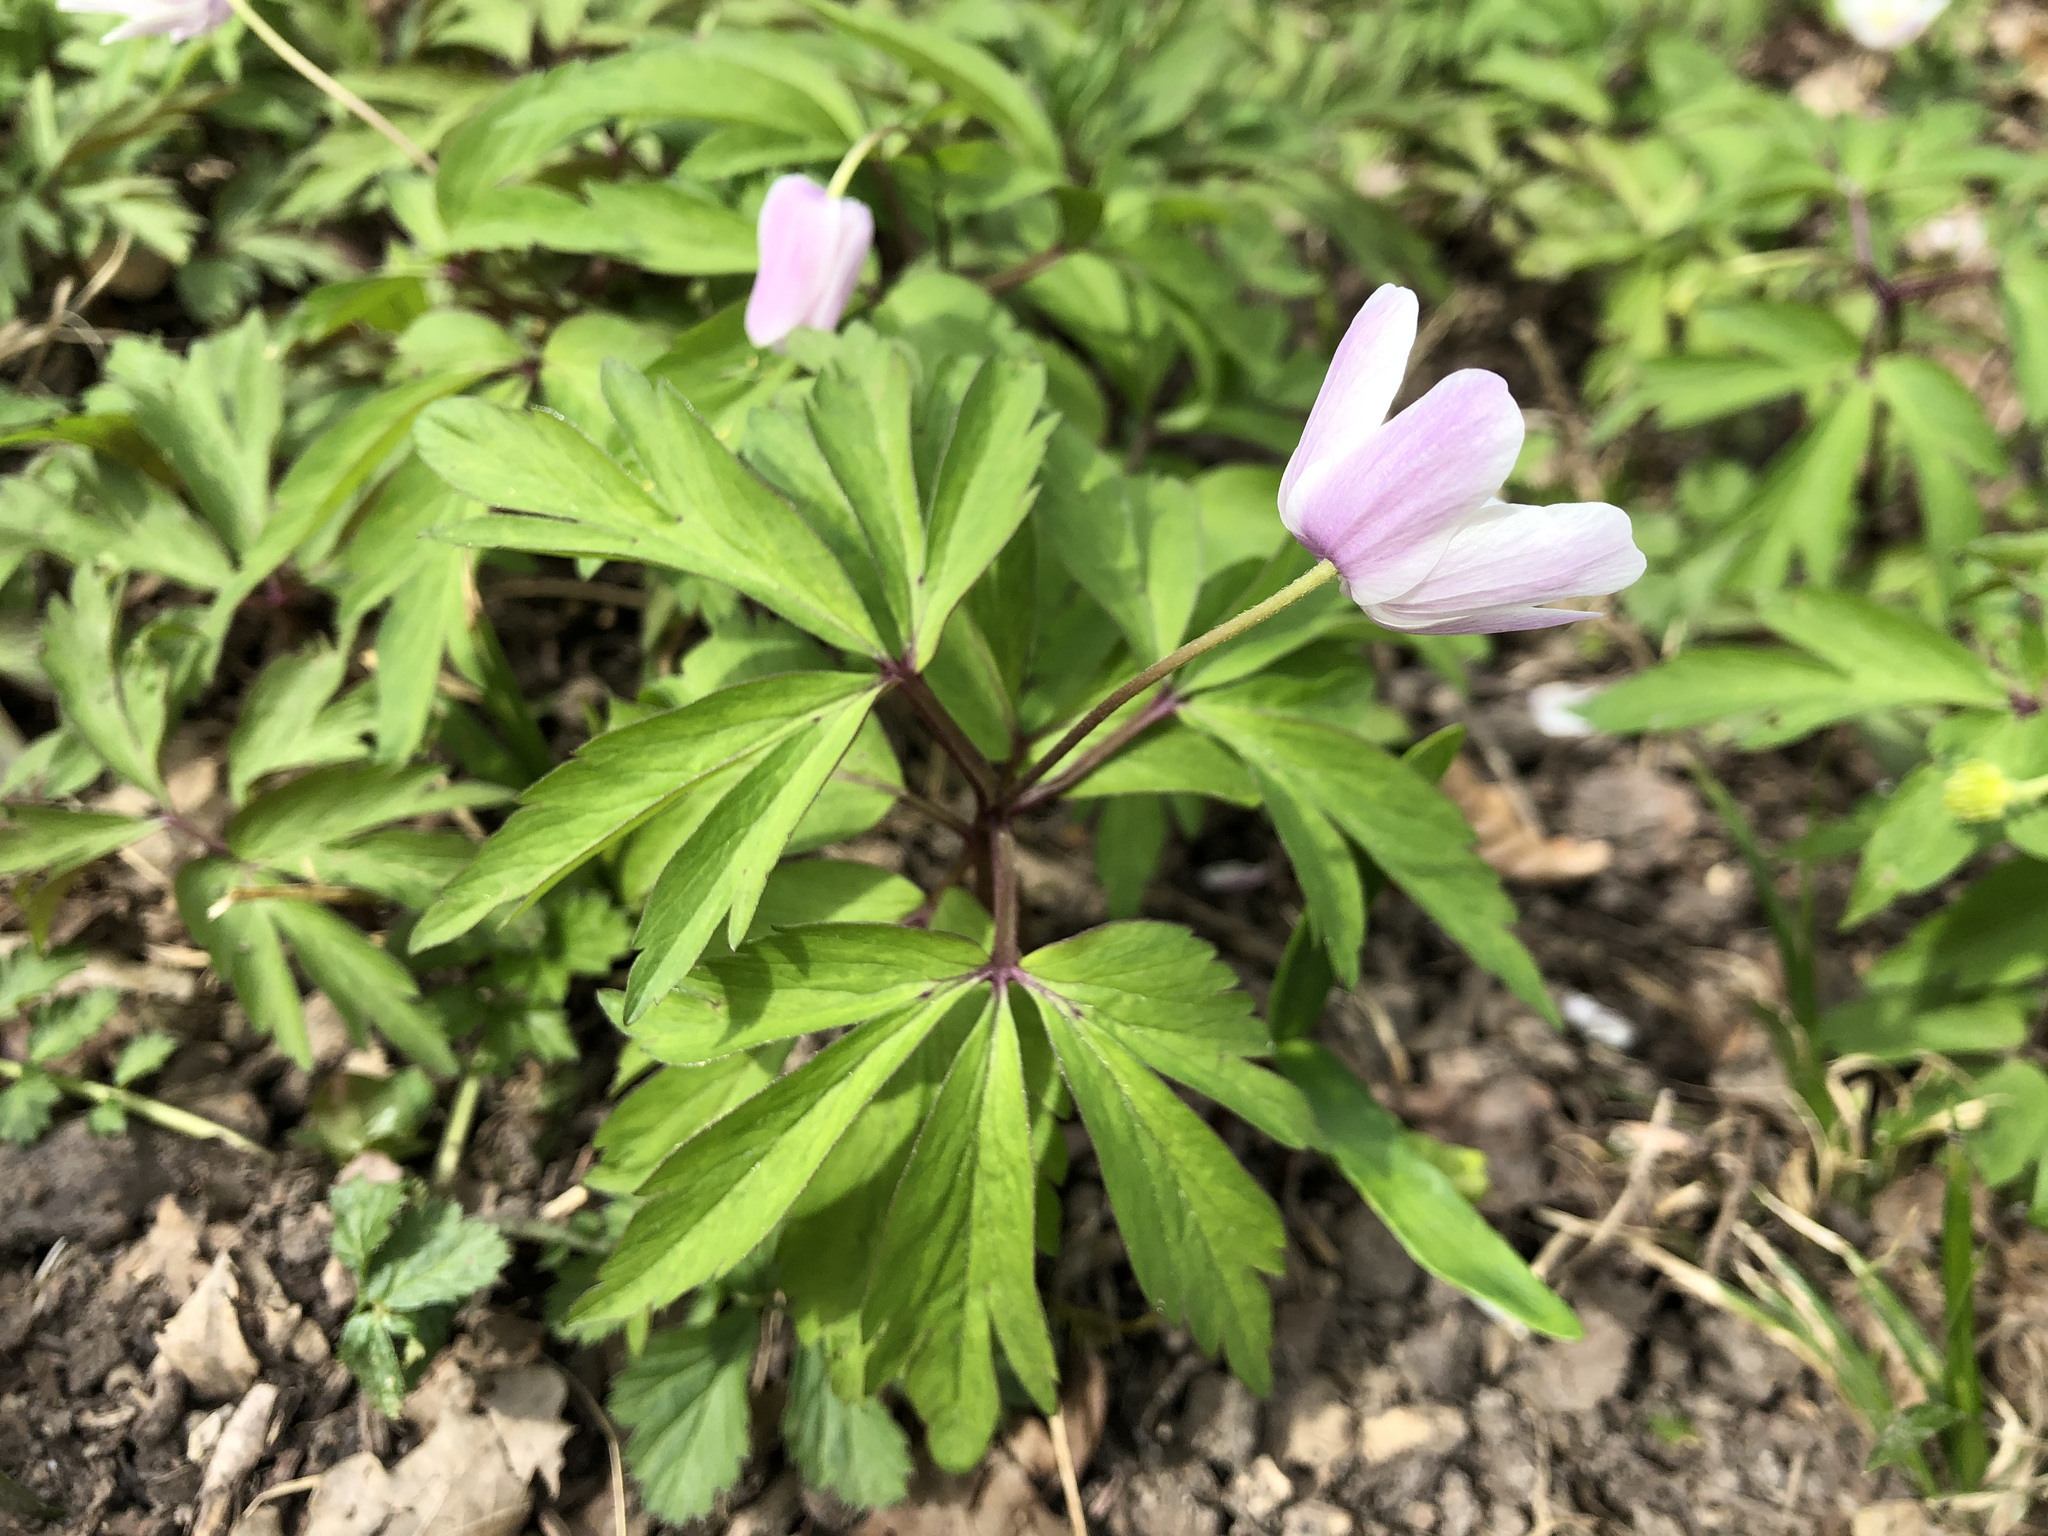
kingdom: Plantae
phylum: Tracheophyta
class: Magnoliopsida
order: Ranunculales
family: Ranunculaceae
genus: Anemone
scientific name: Anemone nemorosa
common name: Wood anemone
